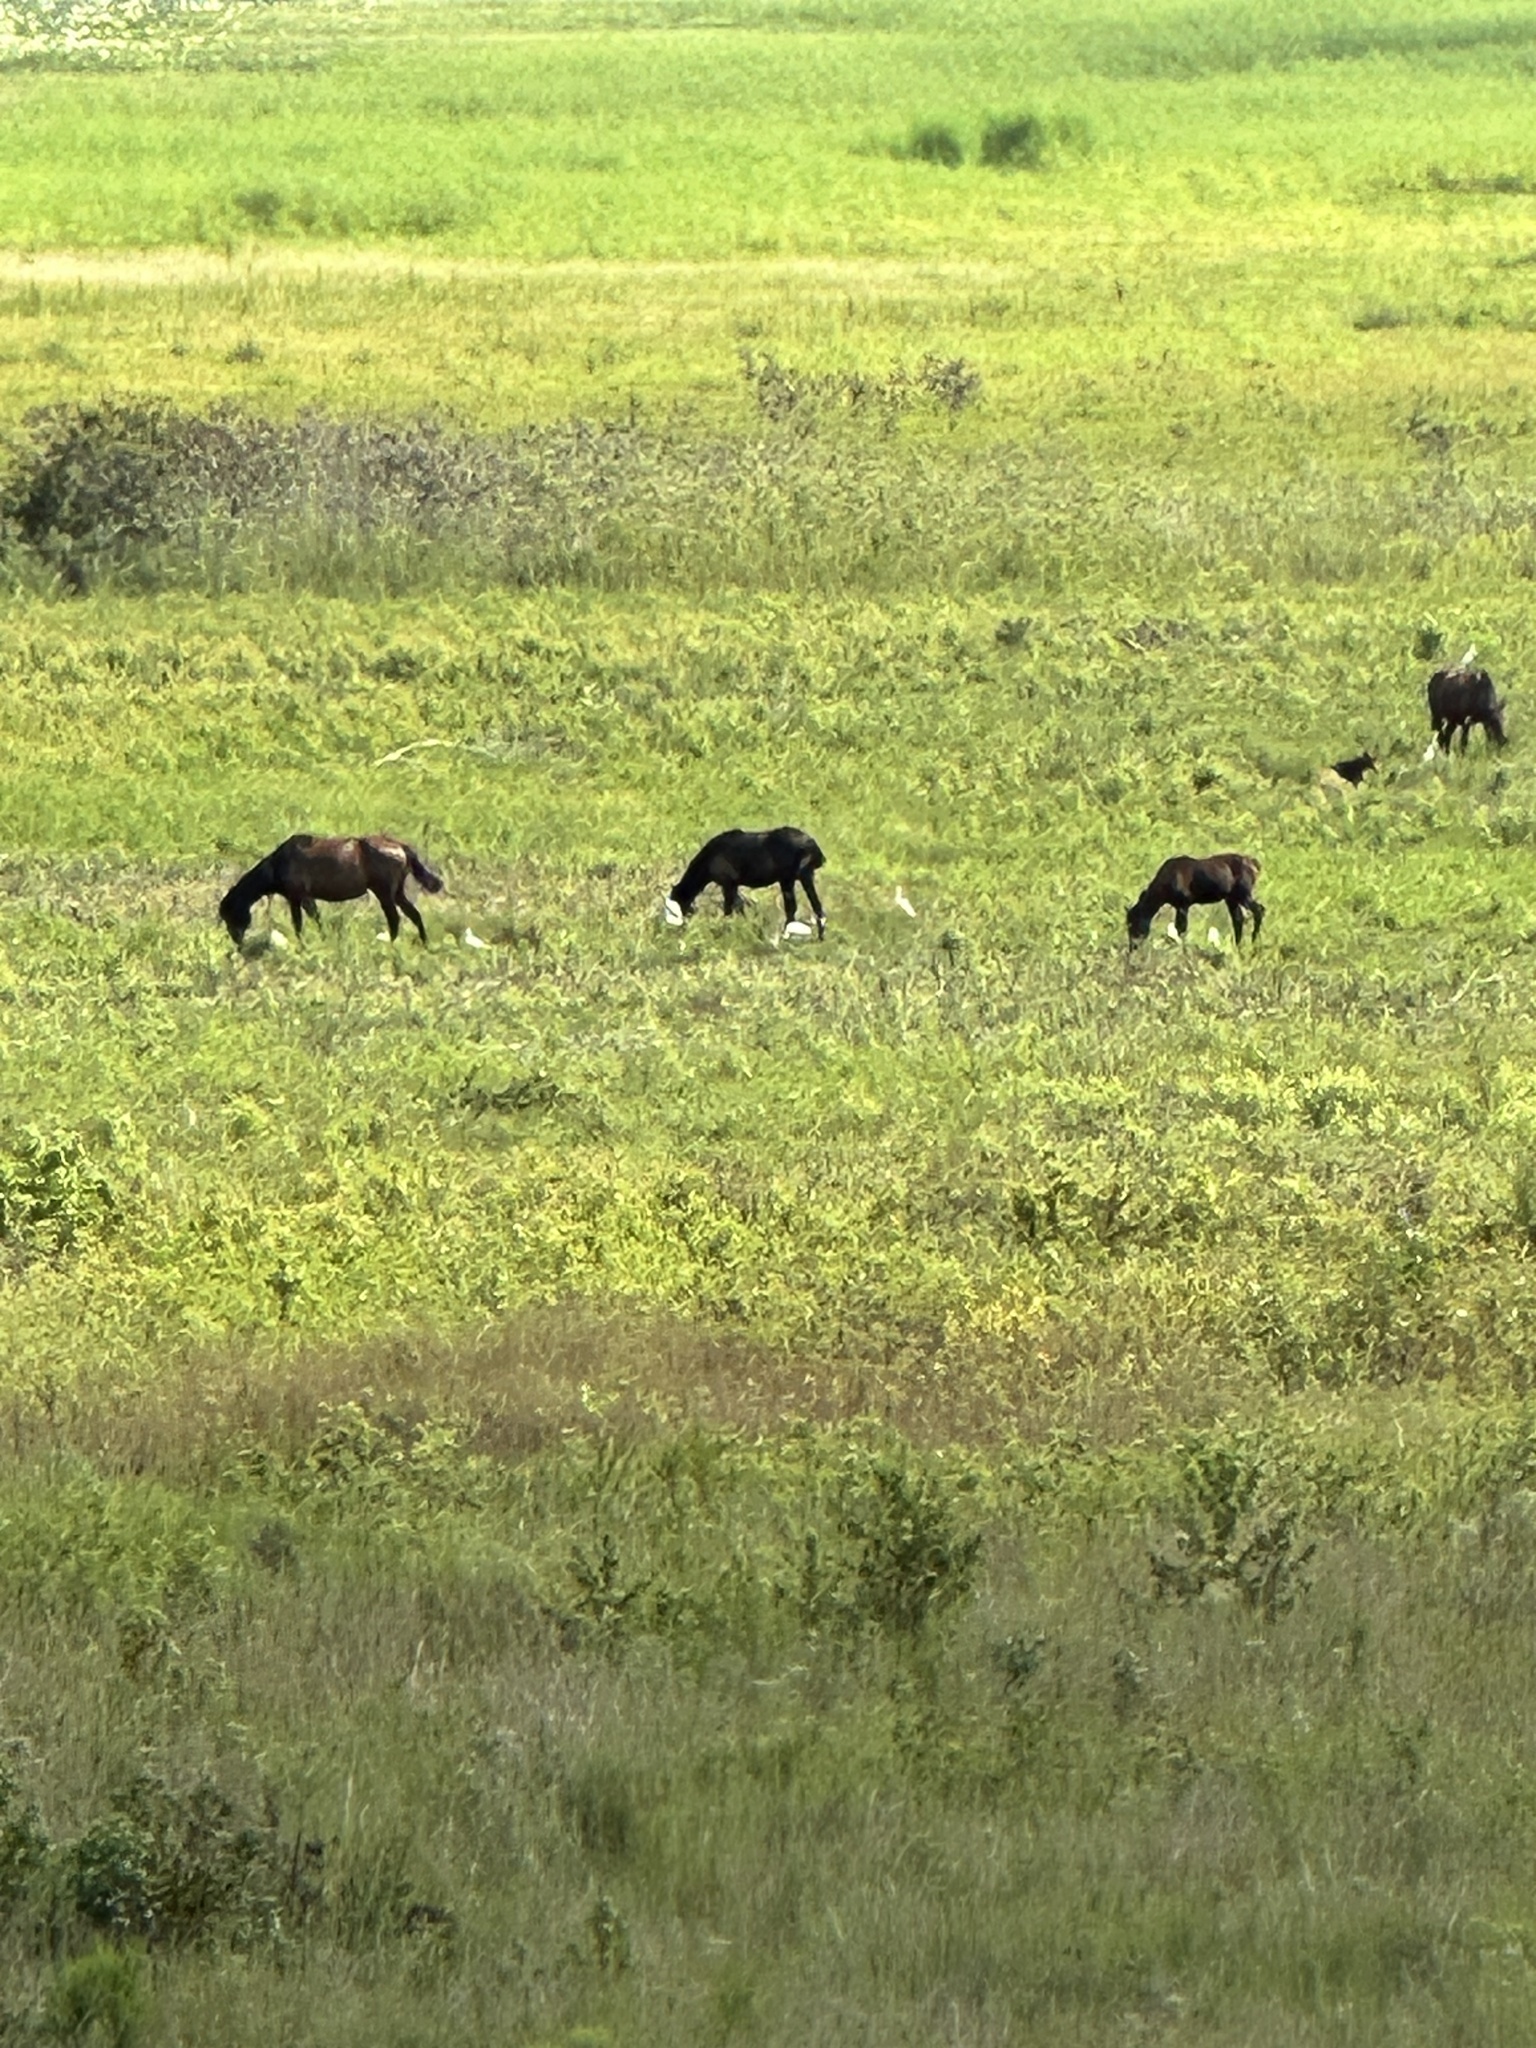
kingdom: Animalia
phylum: Chordata
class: Mammalia
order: Perissodactyla
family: Equidae
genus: Equus
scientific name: Equus caballus
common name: Horse
